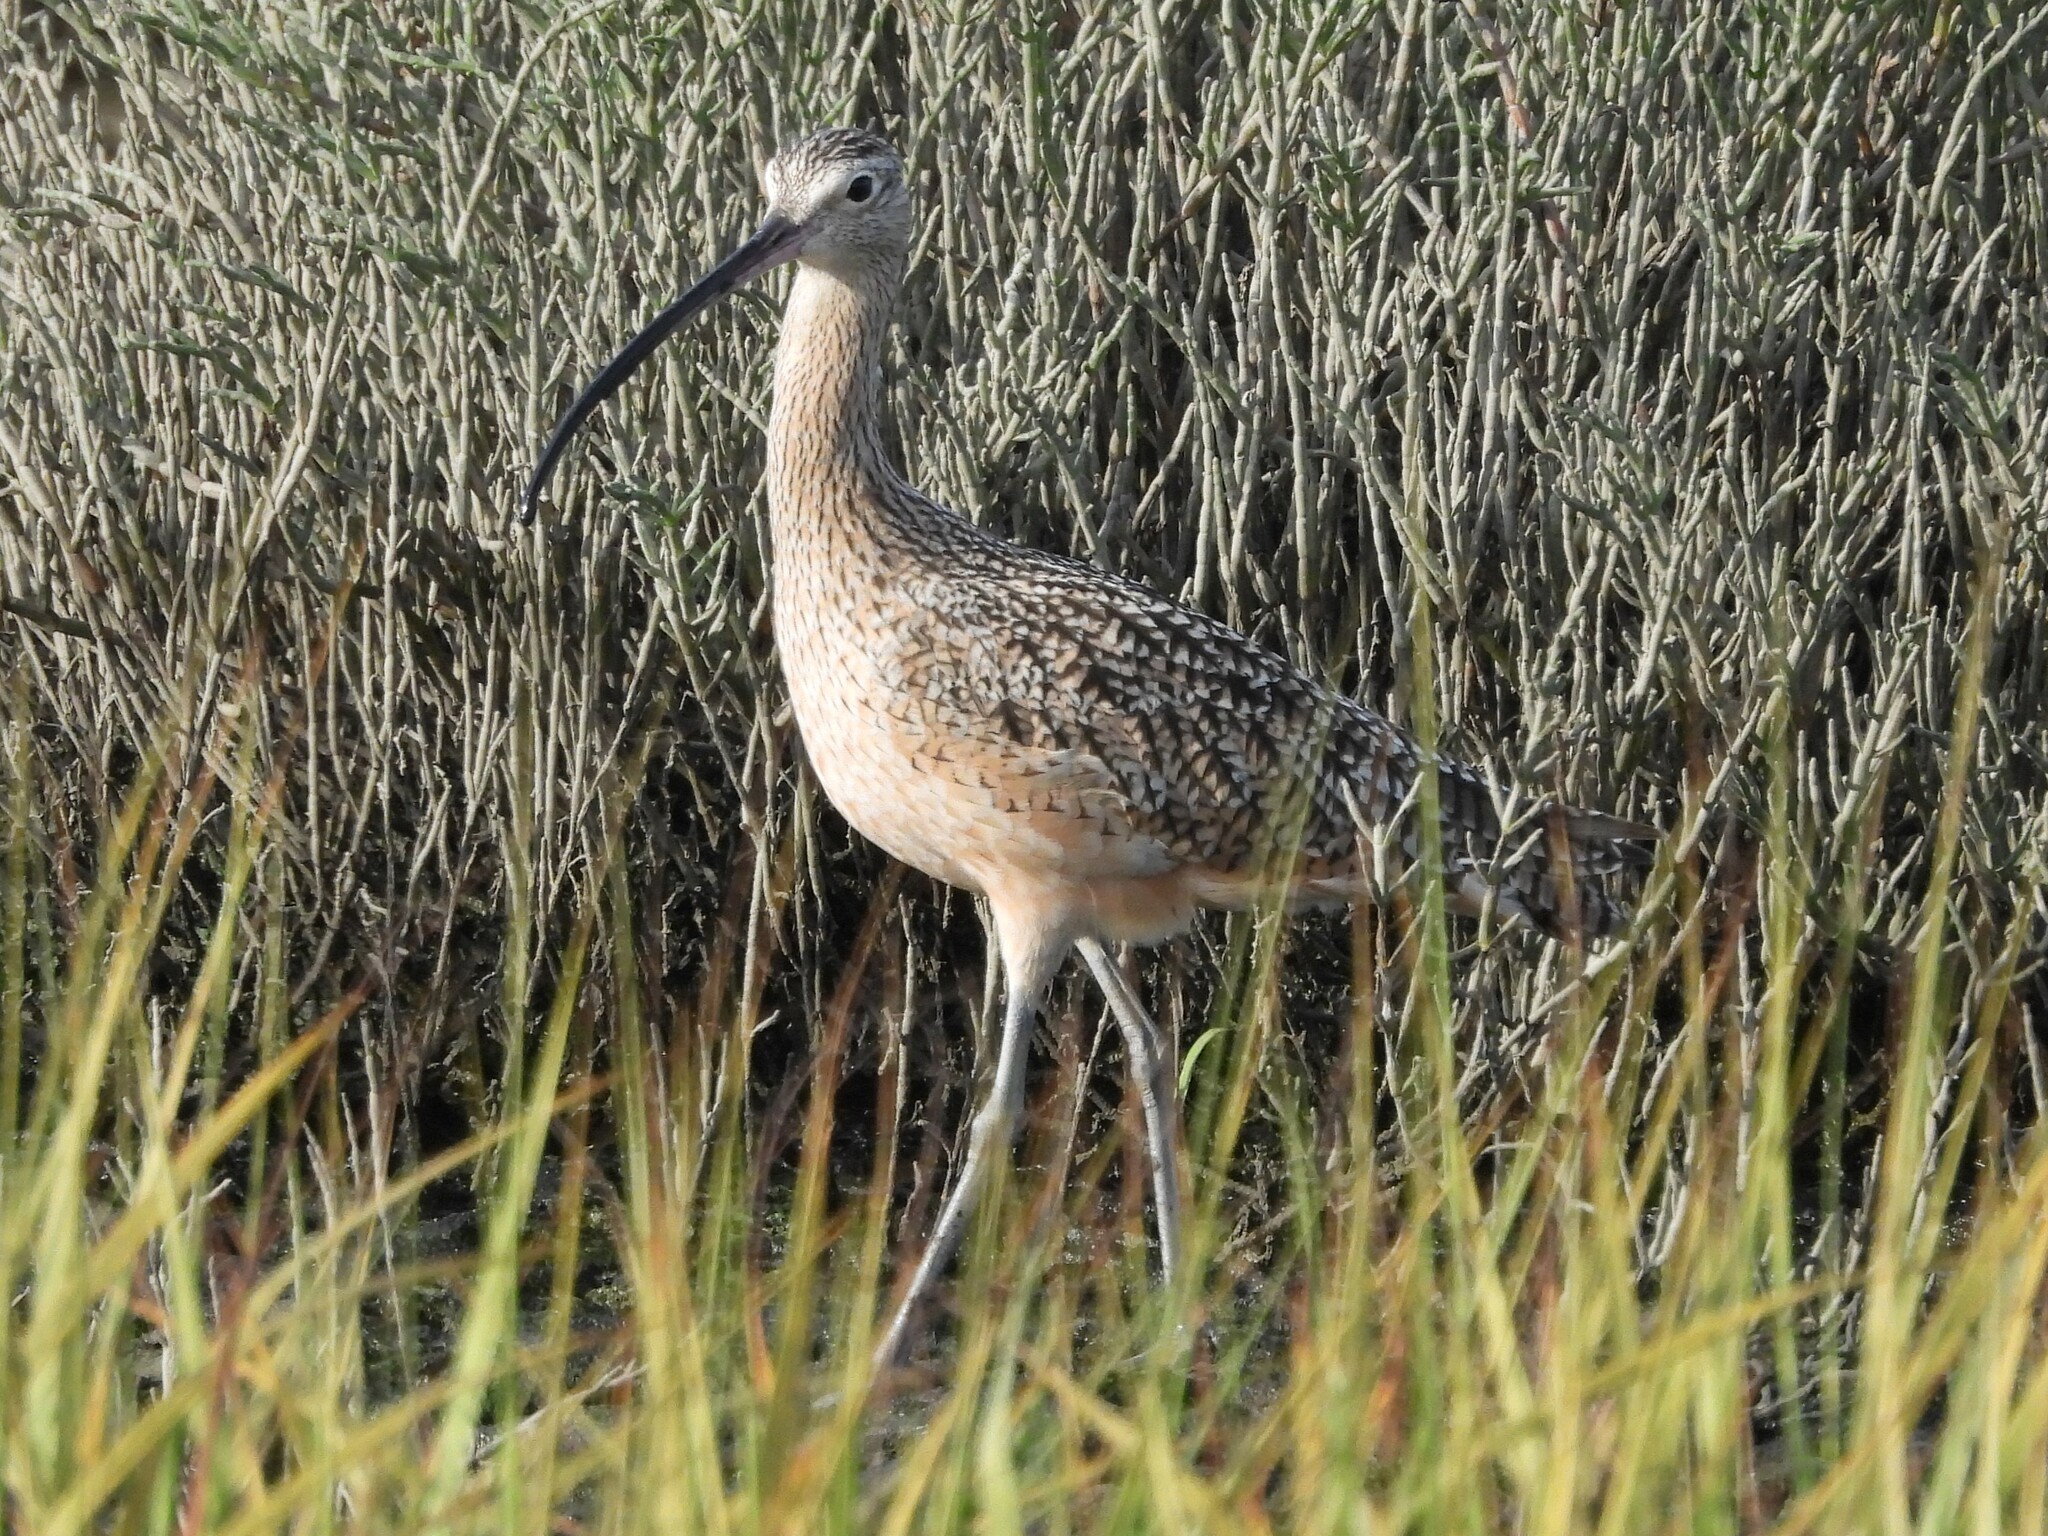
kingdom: Animalia
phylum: Chordata
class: Aves
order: Charadriiformes
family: Scolopacidae
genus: Numenius
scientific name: Numenius americanus
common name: Long-billed curlew
